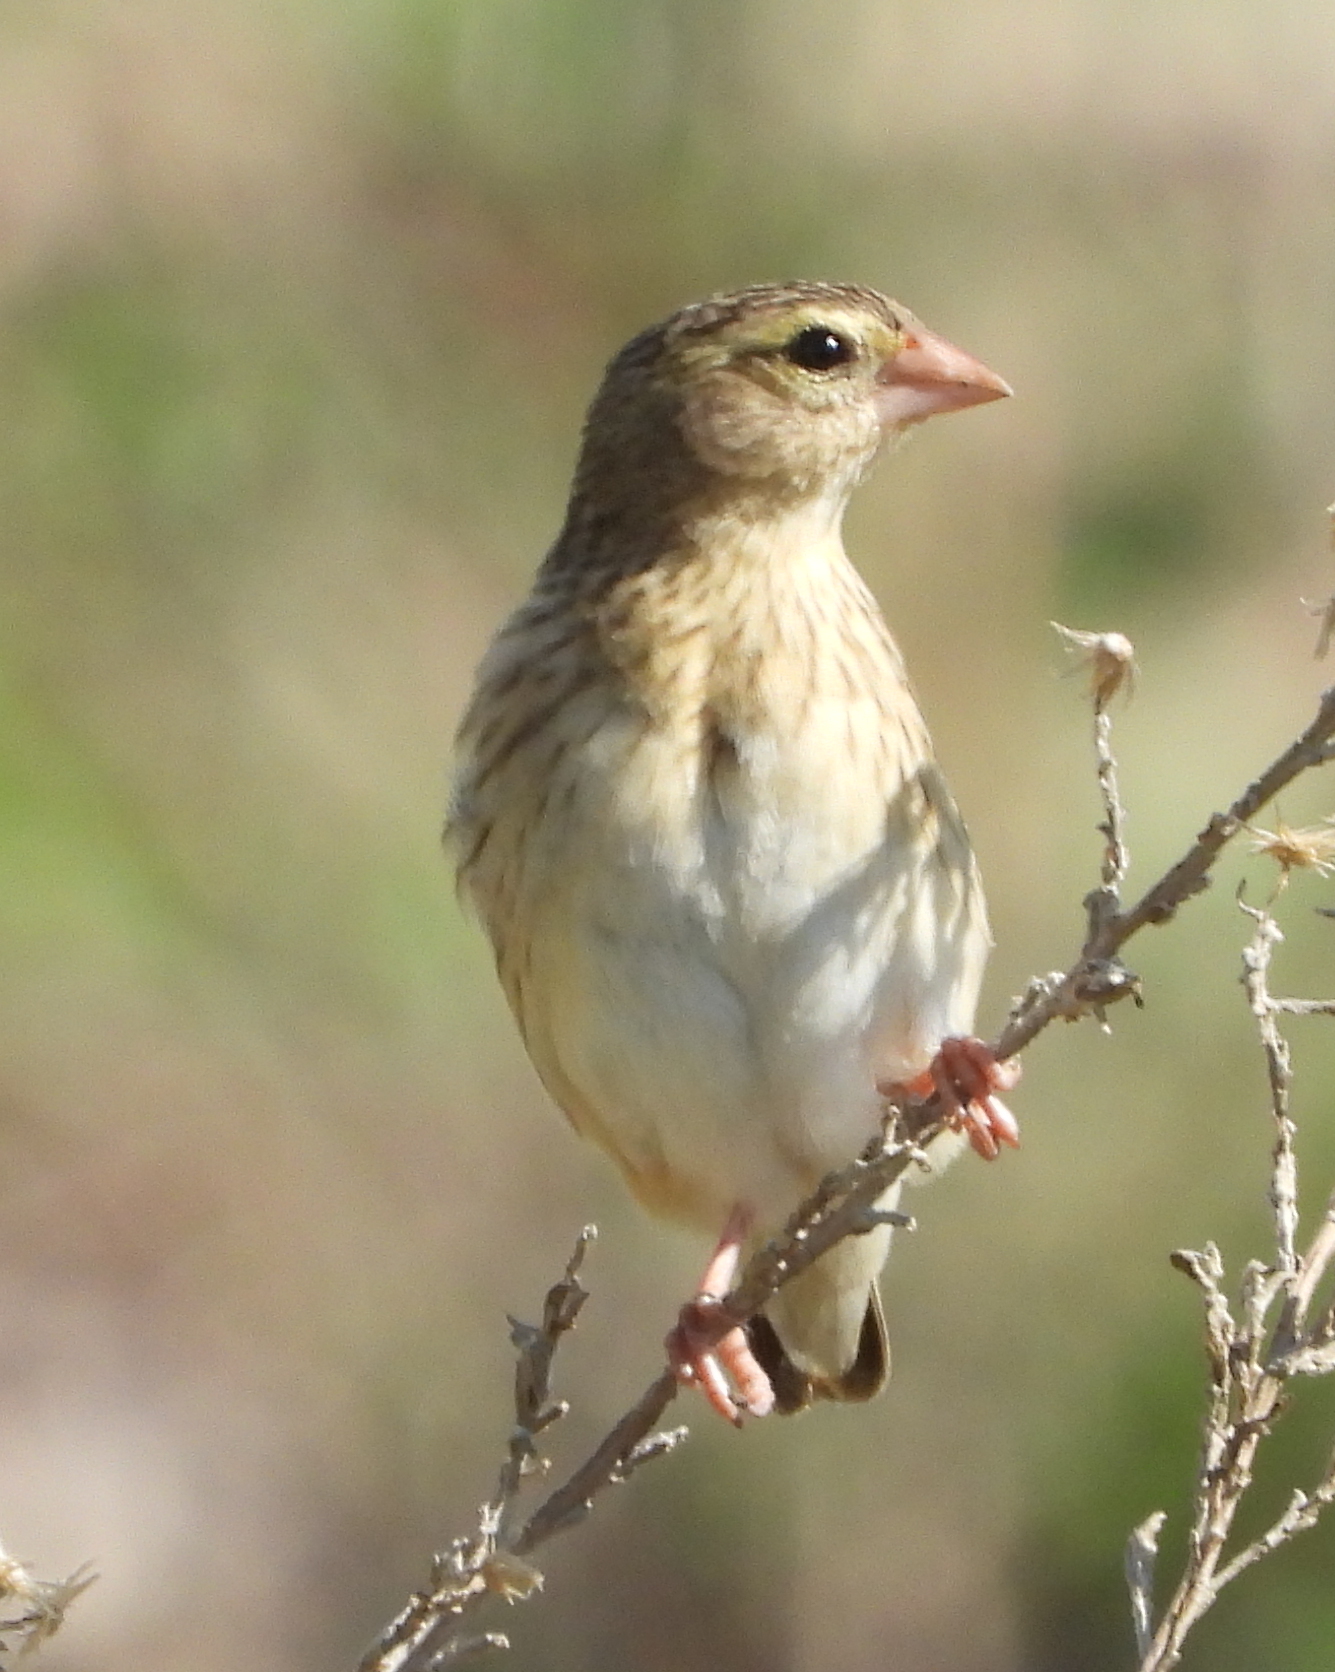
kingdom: Animalia
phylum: Chordata
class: Aves
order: Passeriformes
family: Ploceidae
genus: Euplectes
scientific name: Euplectes orix
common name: Southern red bishop
